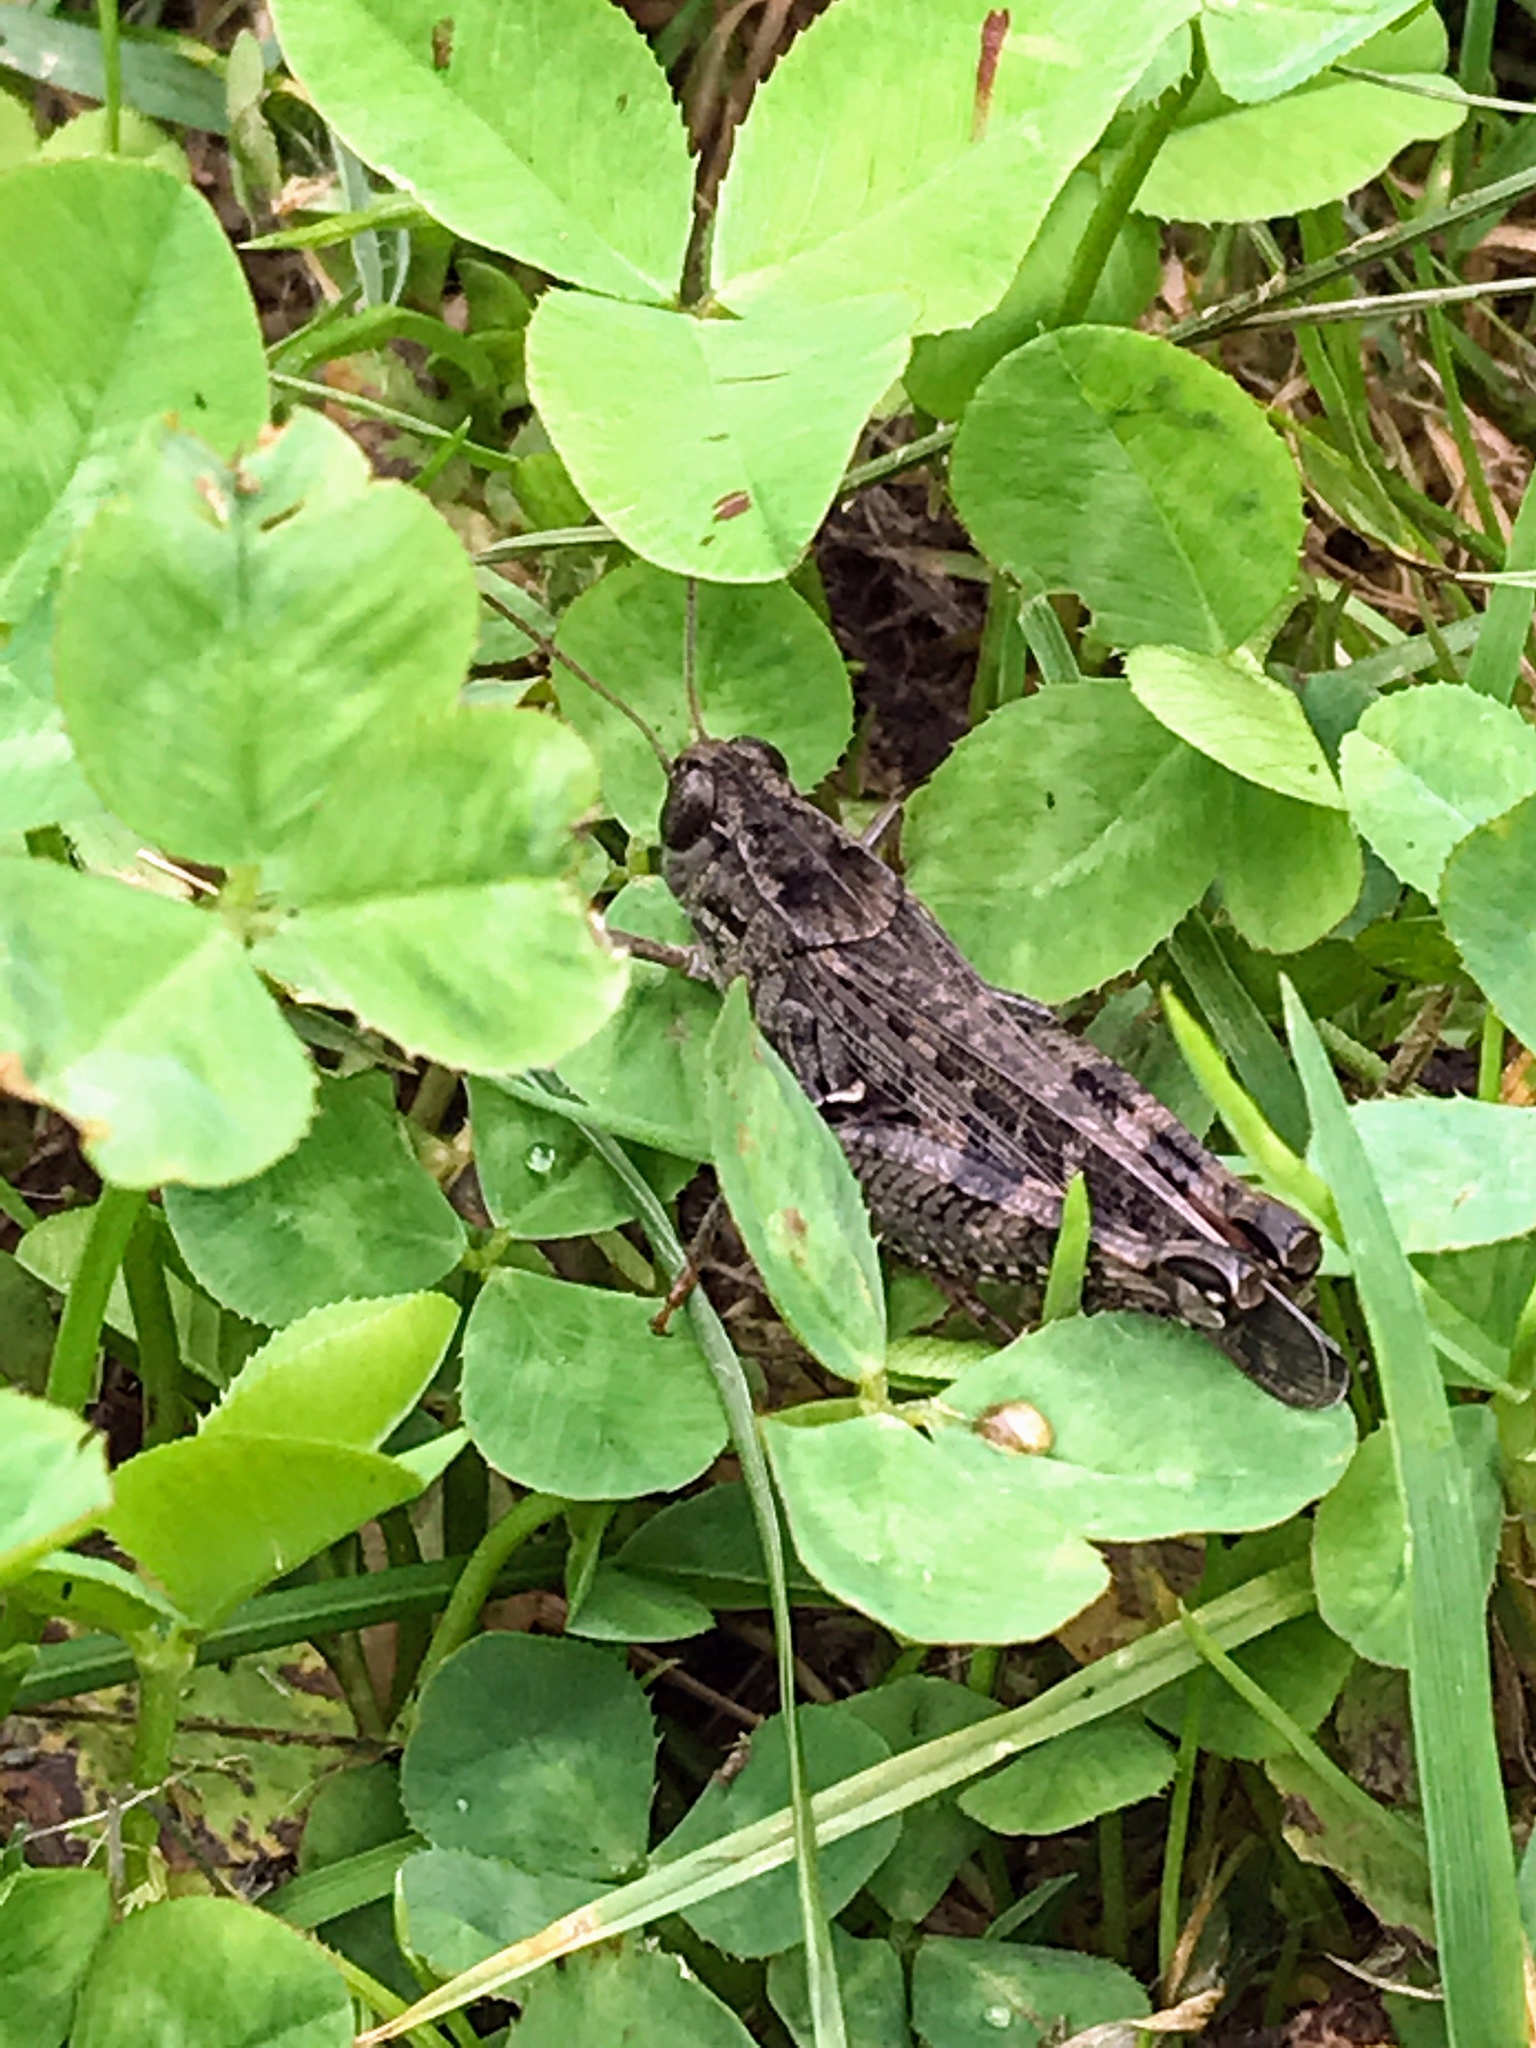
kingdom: Animalia
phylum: Arthropoda
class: Insecta
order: Orthoptera
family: Acrididae
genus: Calliptamus
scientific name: Calliptamus italicus
